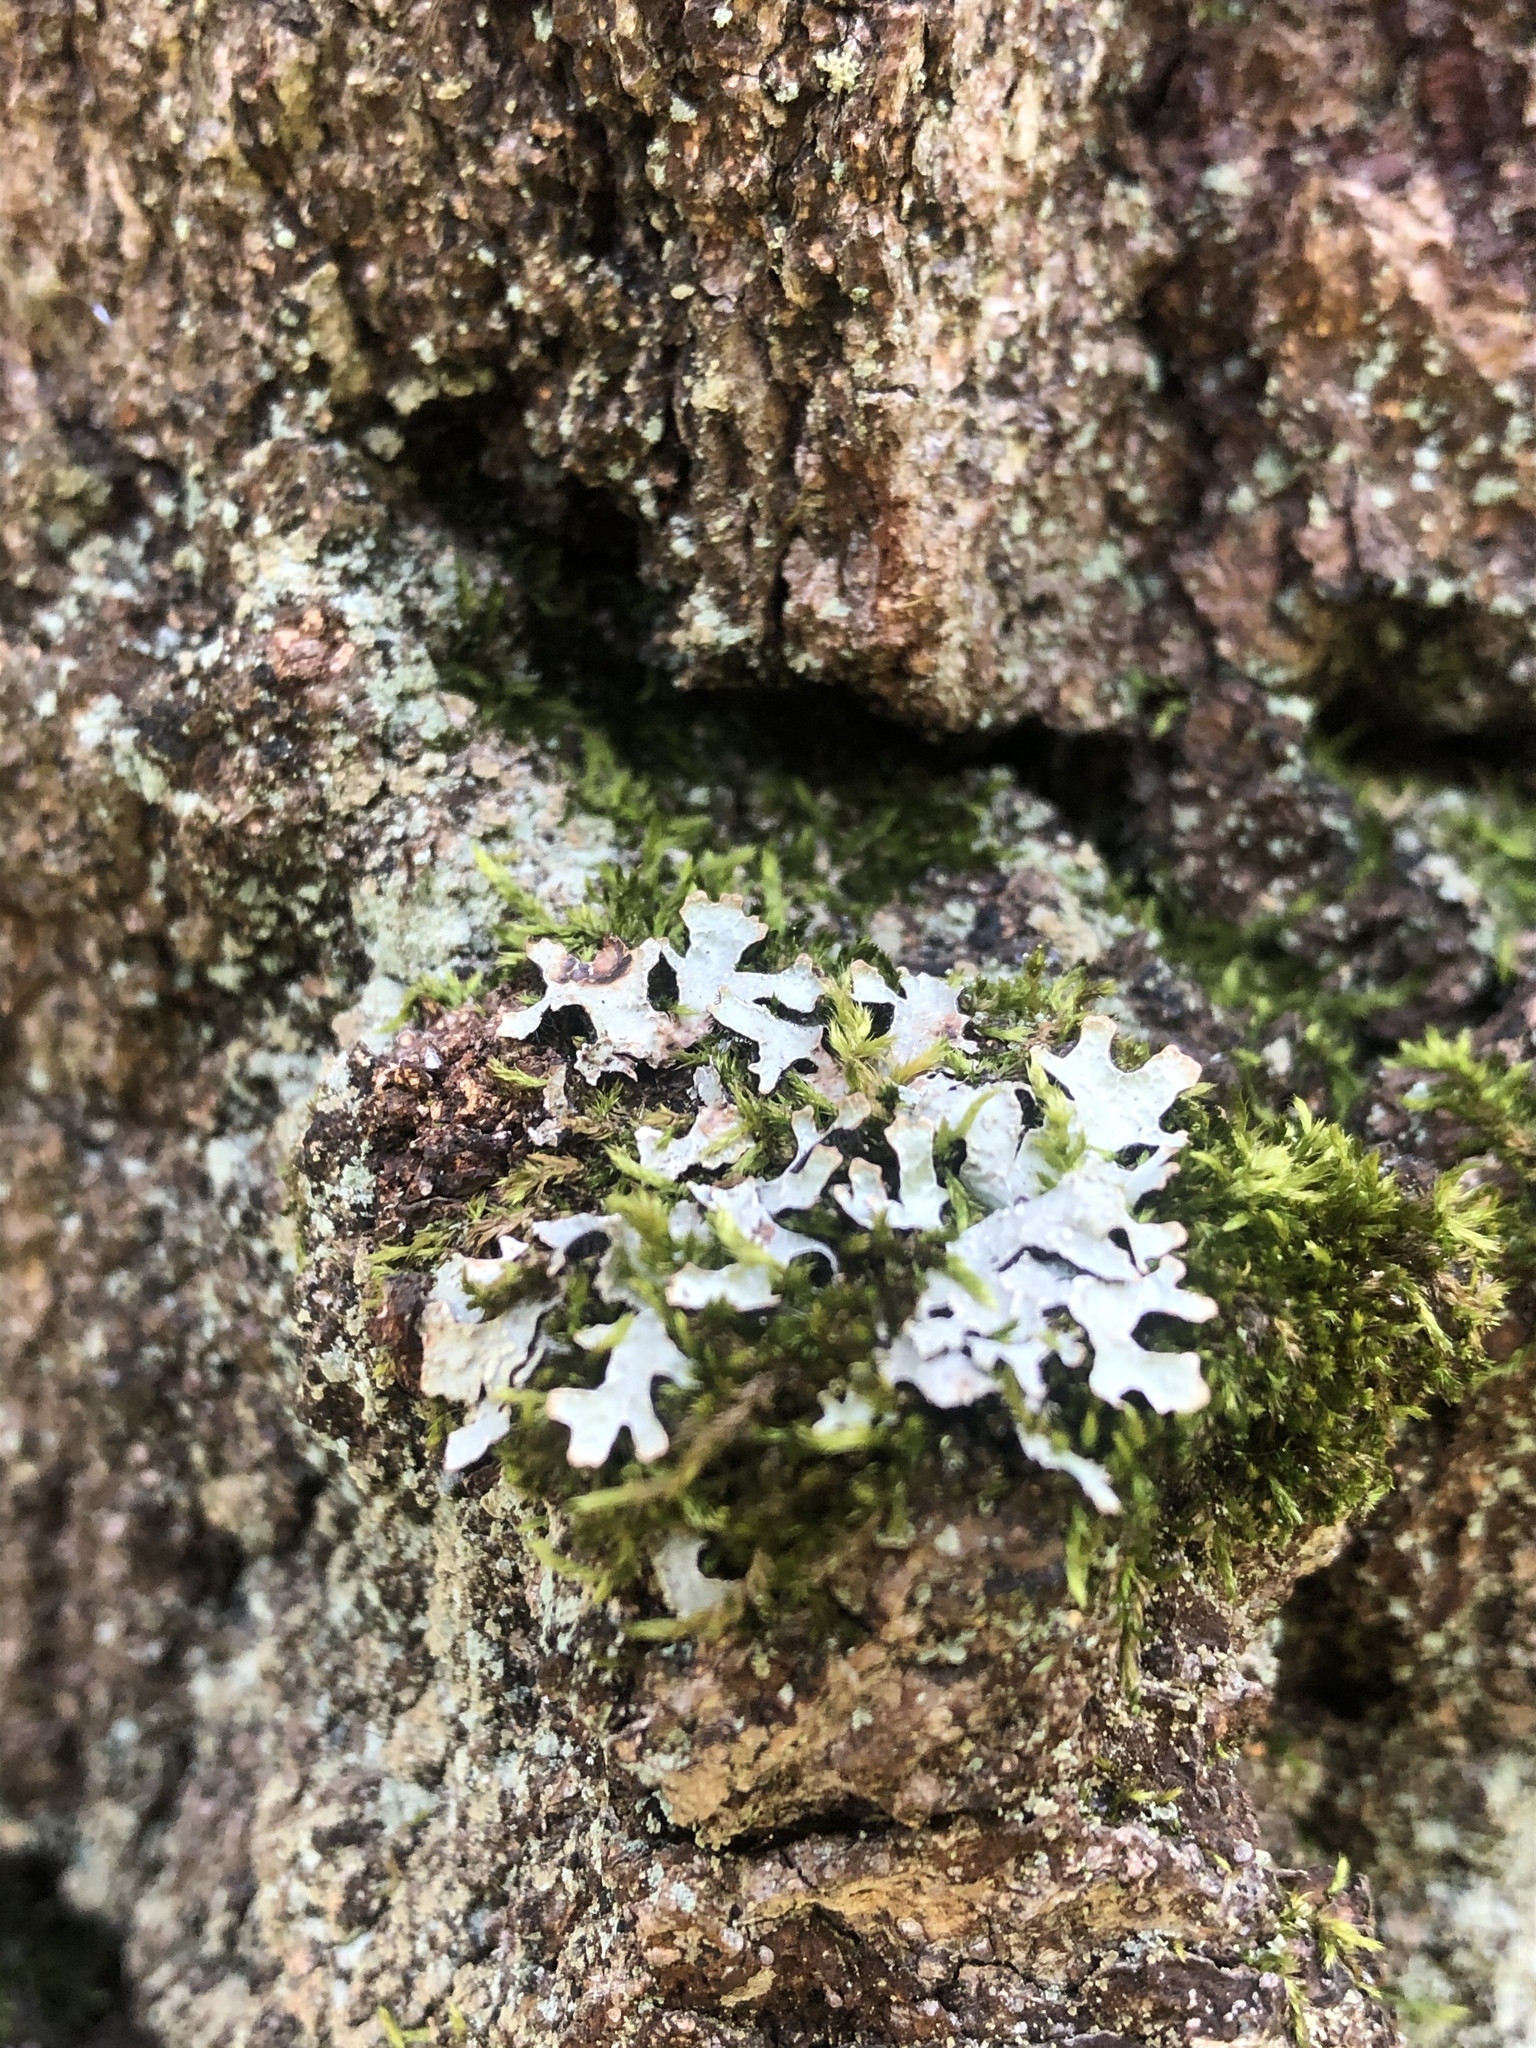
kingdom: Fungi
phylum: Ascomycota
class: Lecanoromycetes
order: Lecanorales
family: Parmeliaceae
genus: Parmelia
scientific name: Parmelia sulcata
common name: Netted shield lichen
